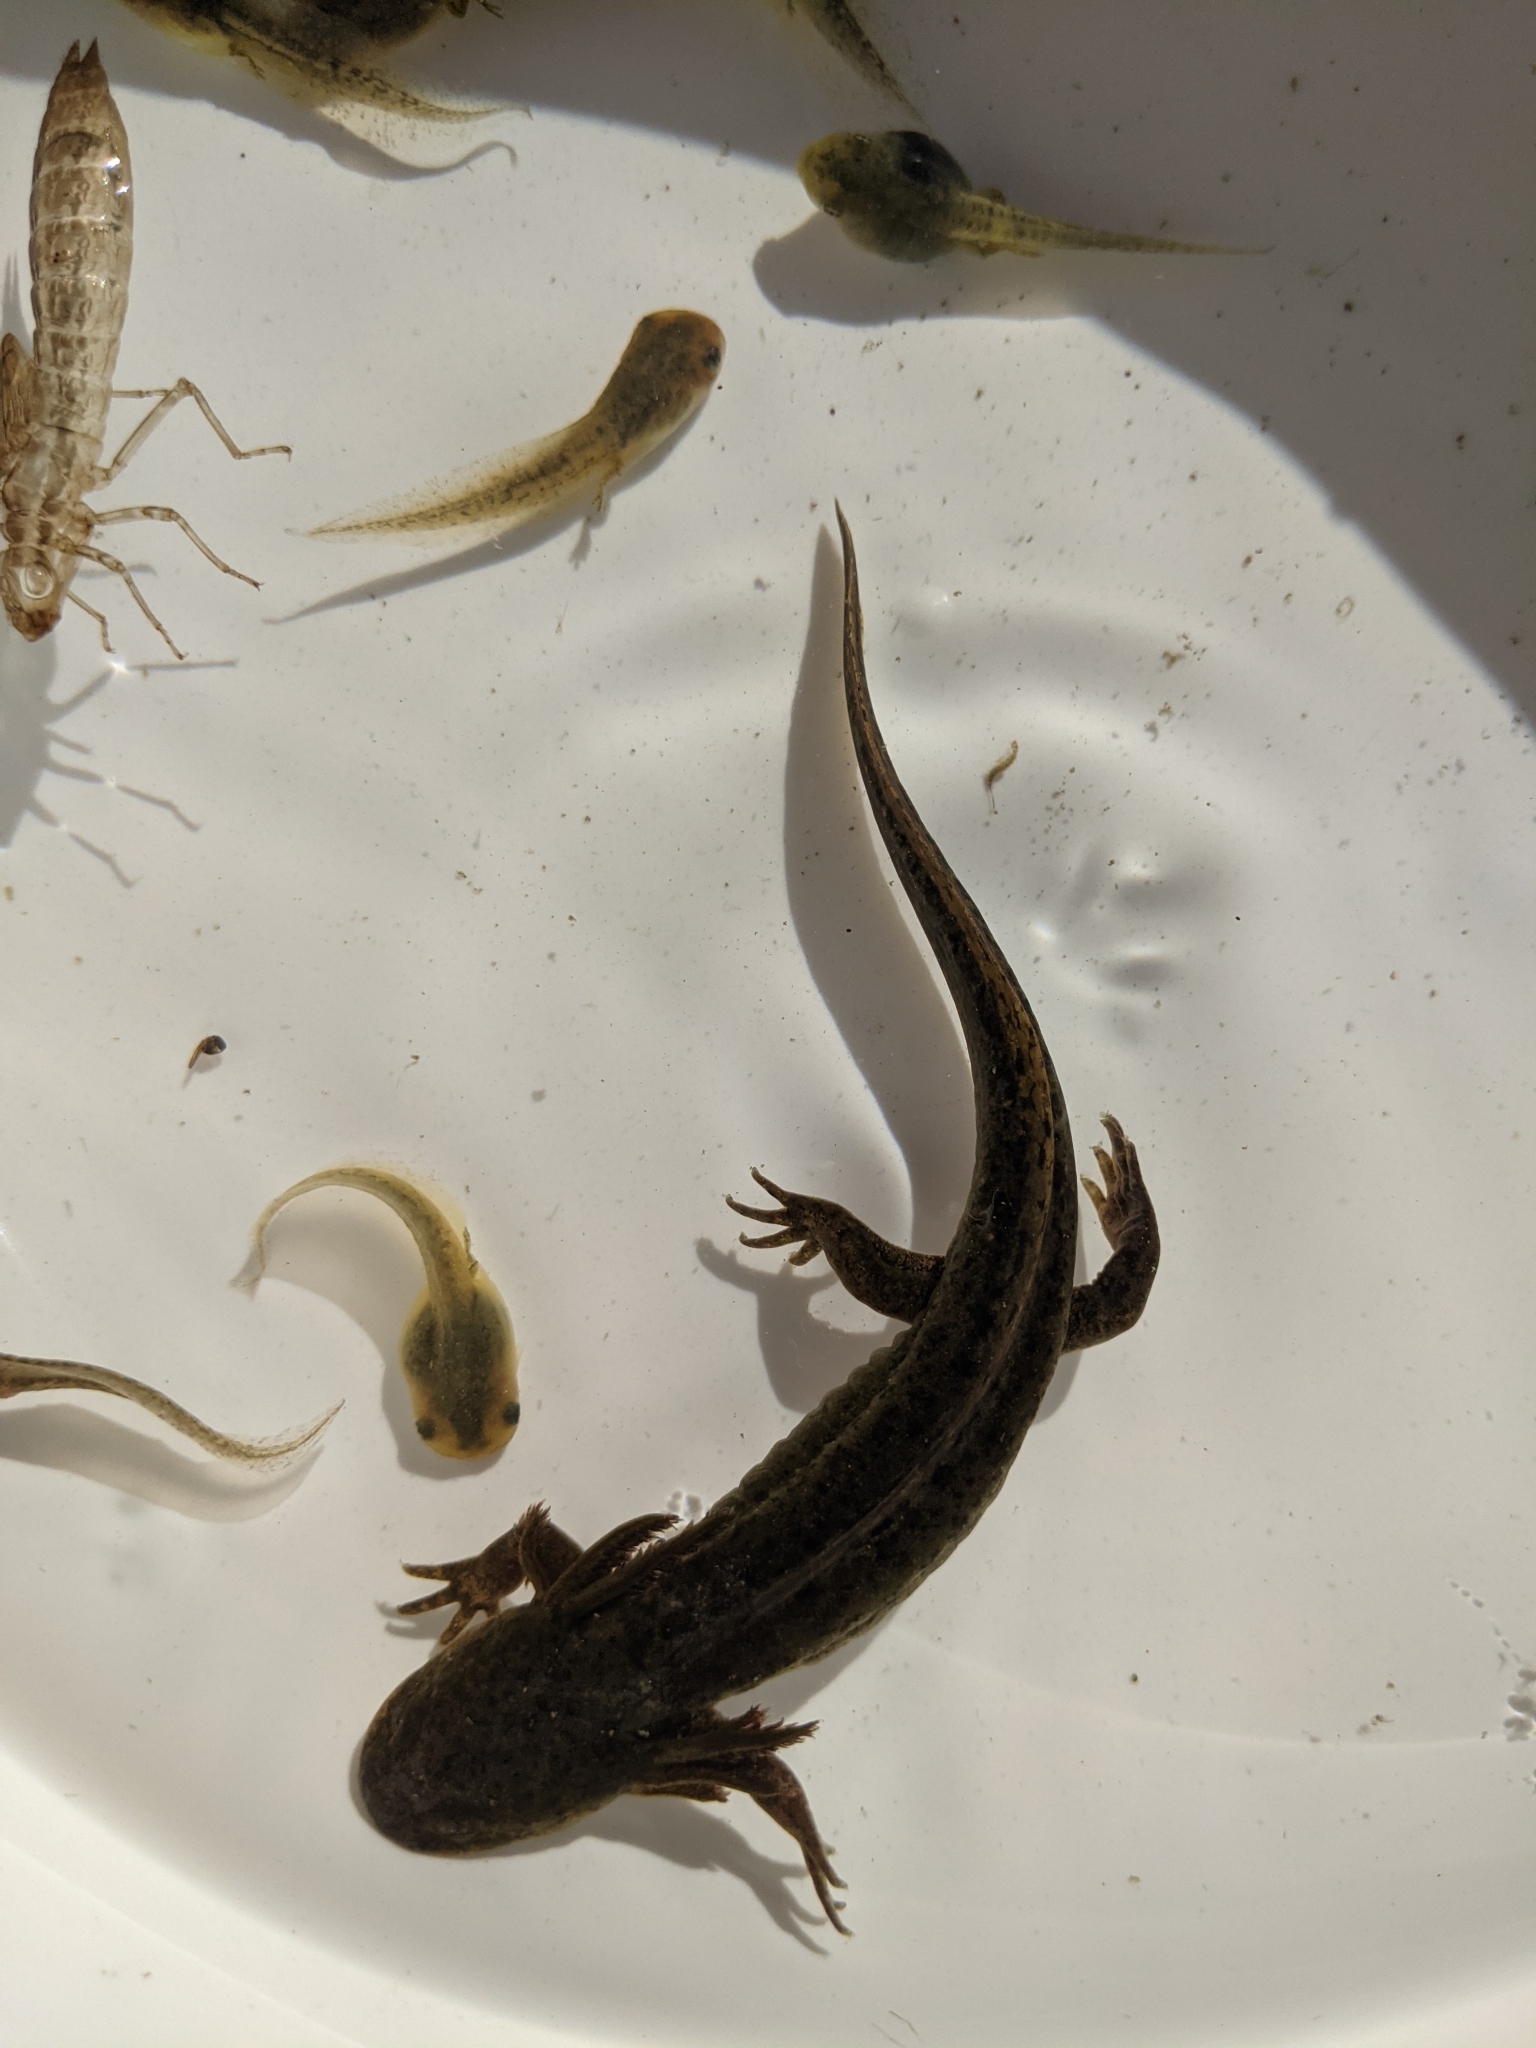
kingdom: Animalia
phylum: Chordata
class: Amphibia
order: Caudata
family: Ambystomatidae
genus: Ambystoma
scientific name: Ambystoma gracile
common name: Northwestern salamander
